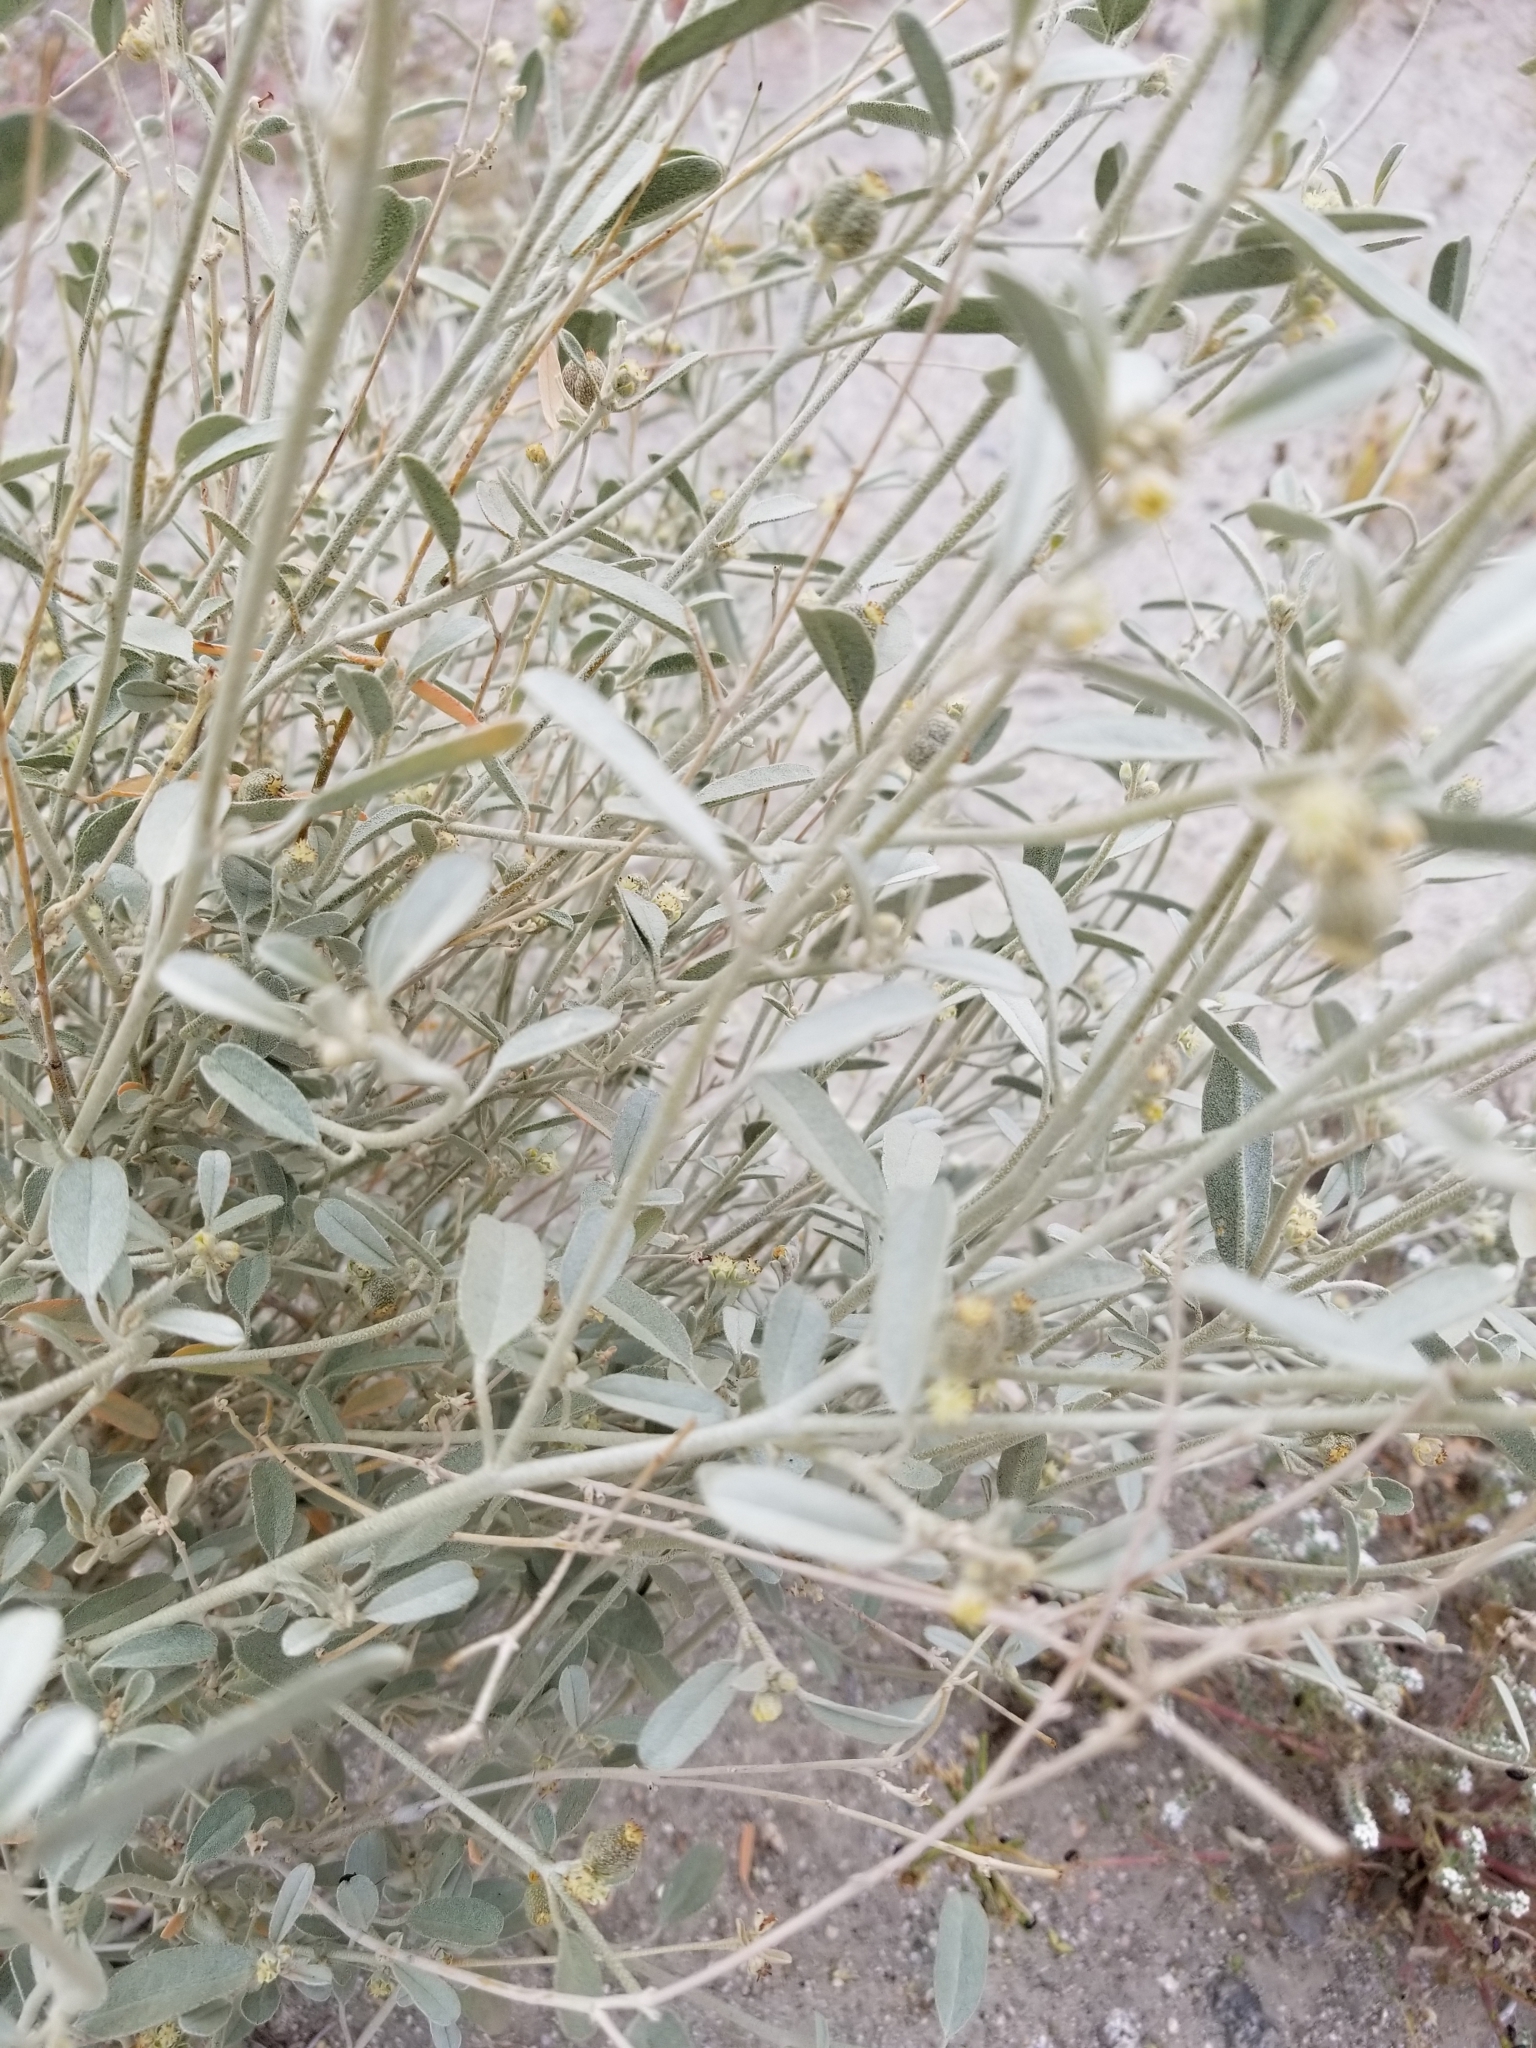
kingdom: Plantae
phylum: Tracheophyta
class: Magnoliopsida
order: Malpighiales
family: Euphorbiaceae
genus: Croton
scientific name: Croton californicus
